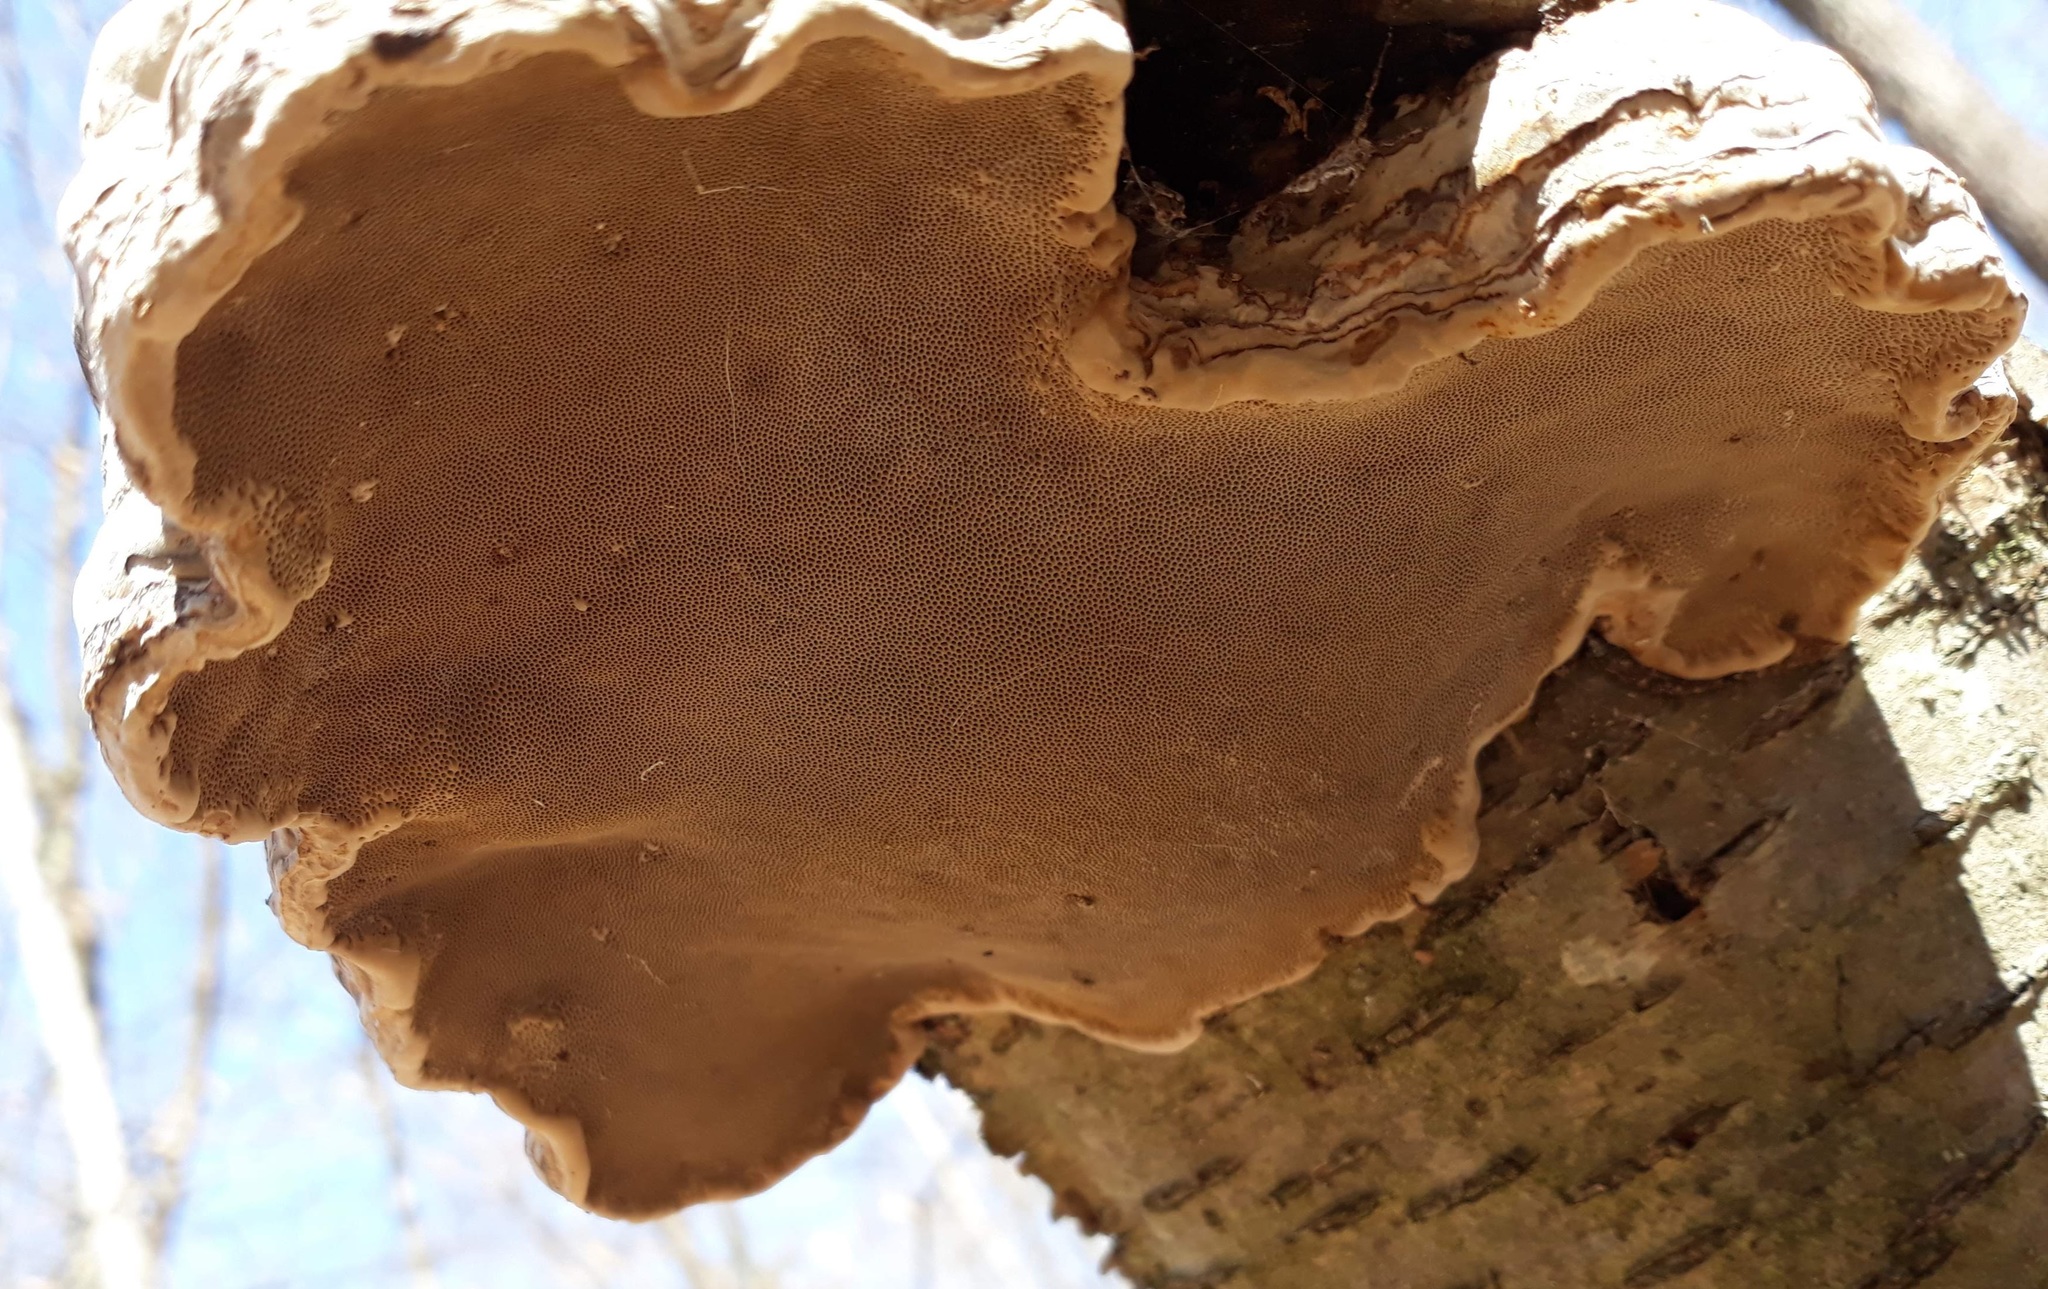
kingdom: Fungi
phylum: Basidiomycota
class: Agaricomycetes
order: Hymenochaetales
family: Hymenochaetaceae
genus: Phellinus
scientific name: Phellinus lundellii
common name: Birch bristle bracket
